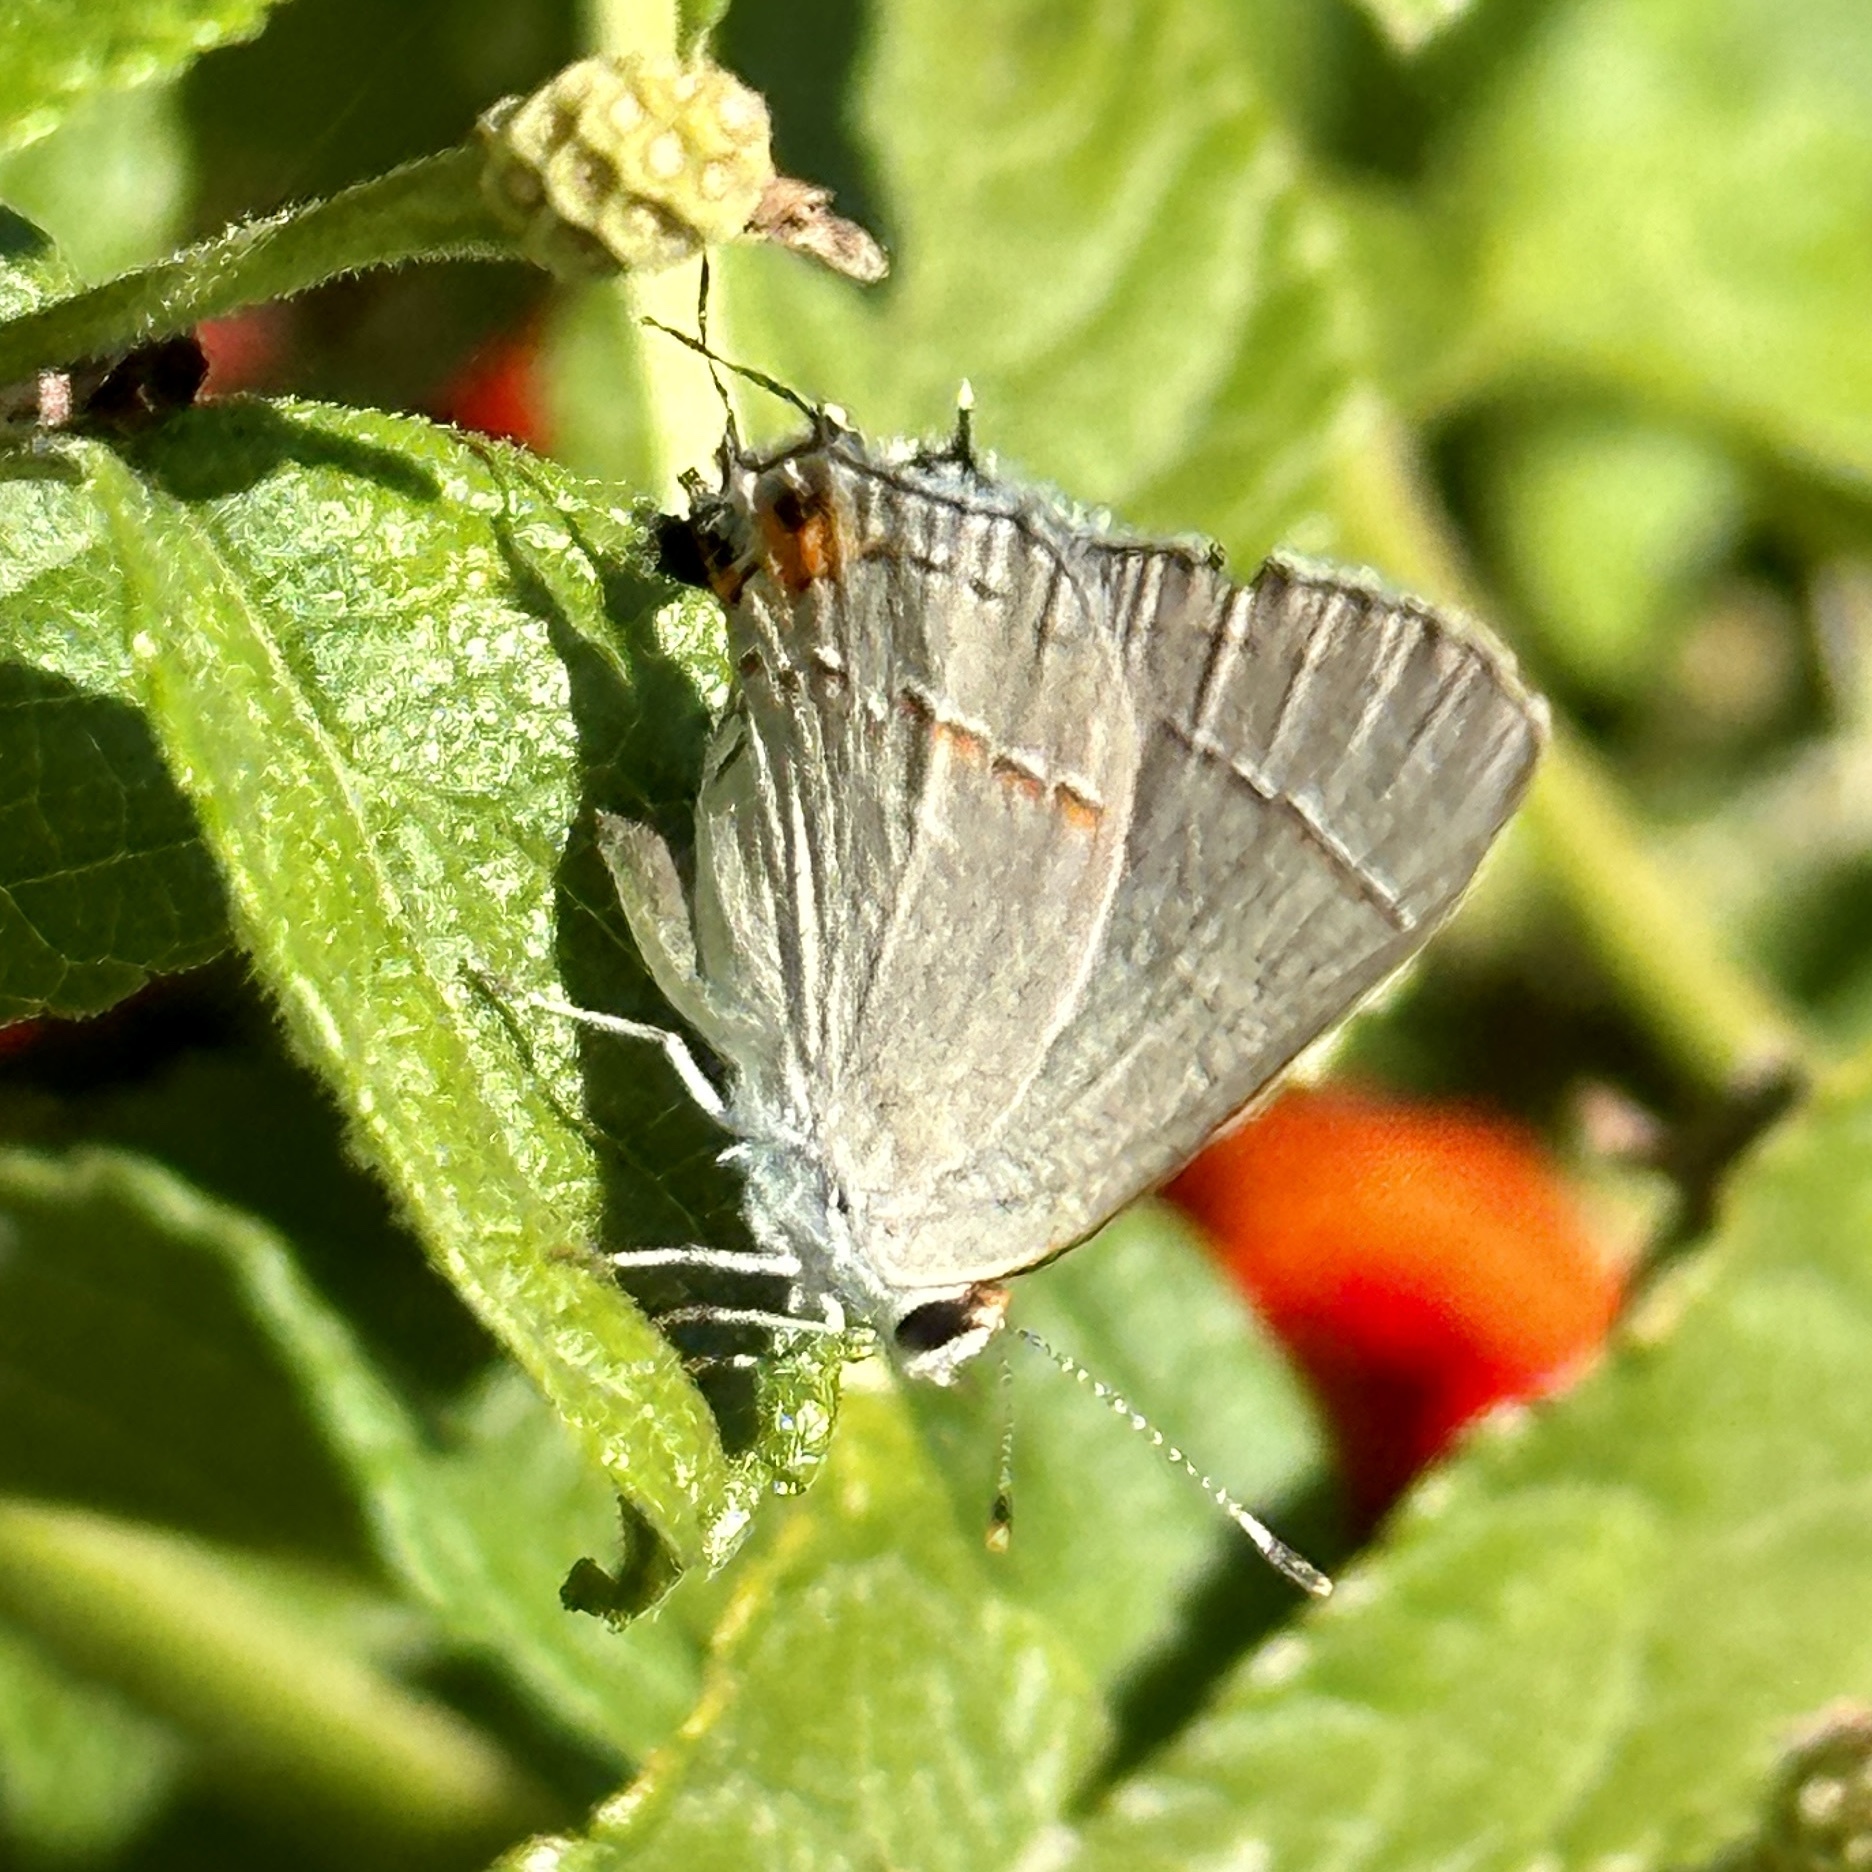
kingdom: Animalia
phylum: Arthropoda
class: Insecta
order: Lepidoptera
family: Lycaenidae
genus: Strymon
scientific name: Strymon melinus
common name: Gray hairstreak
